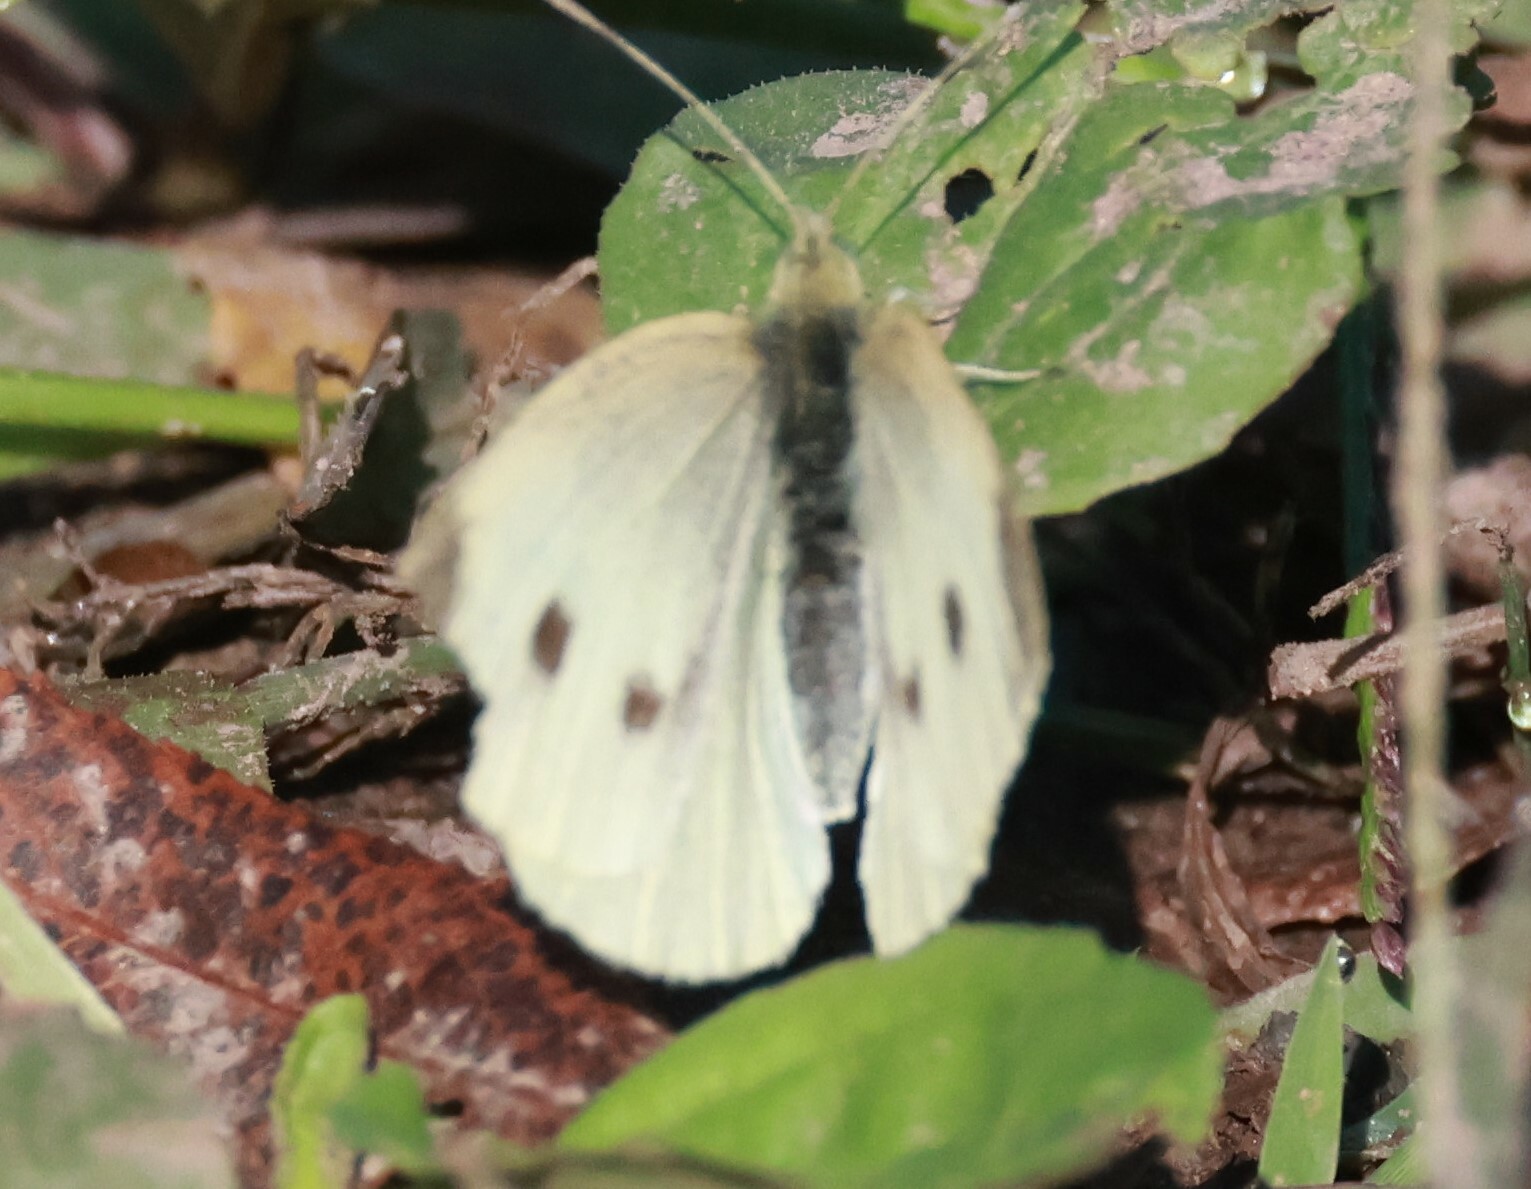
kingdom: Animalia
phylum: Arthropoda
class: Insecta
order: Lepidoptera
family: Pieridae
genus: Pieris
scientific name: Pieris rapae
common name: Small white
